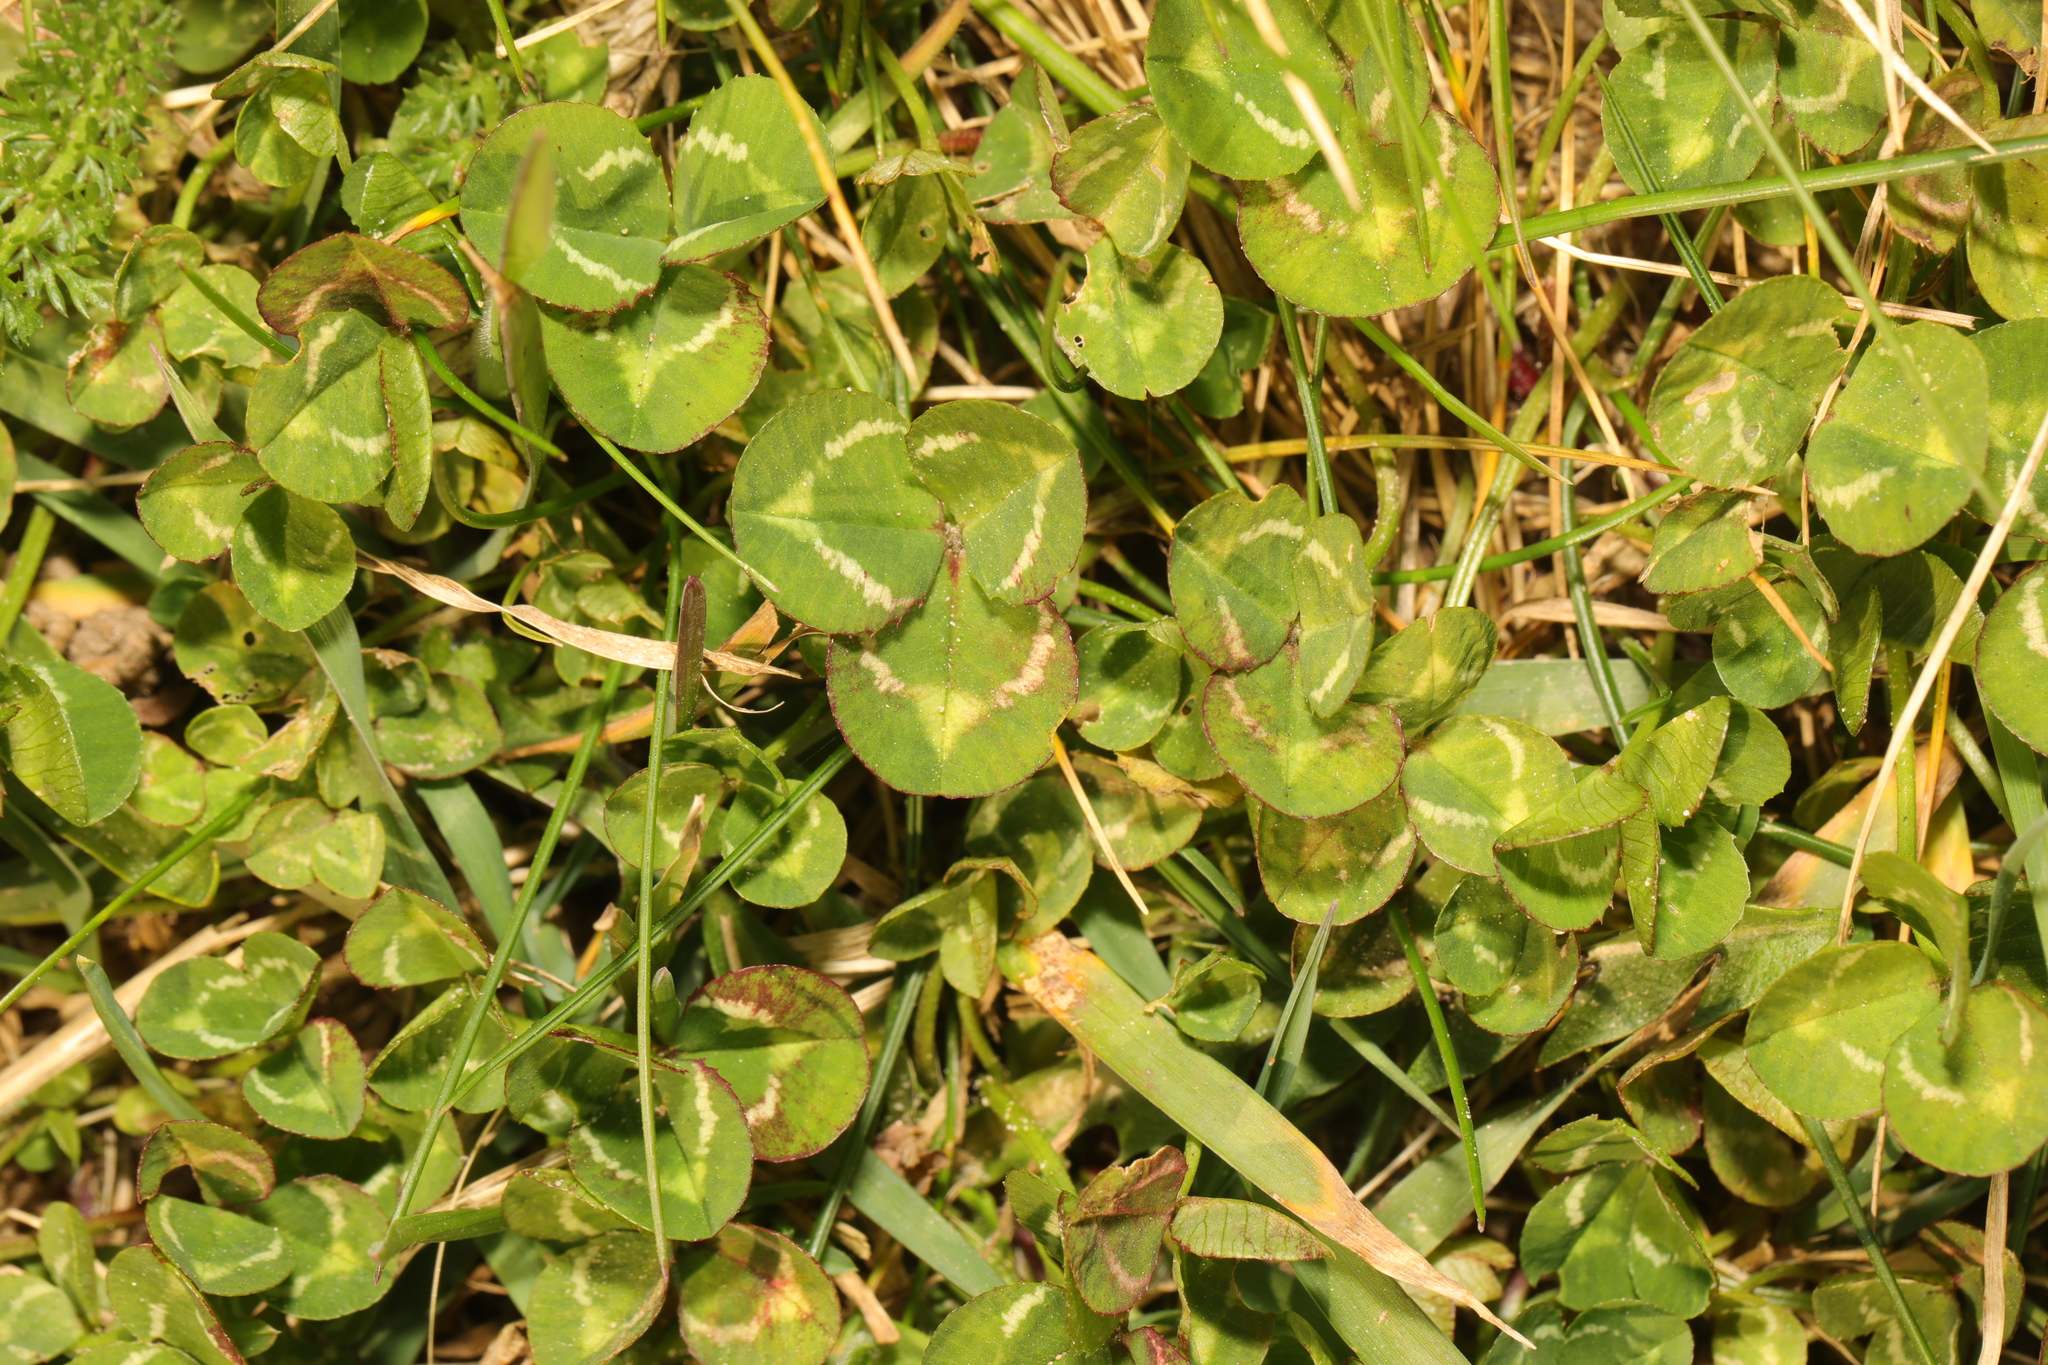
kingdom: Plantae
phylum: Tracheophyta
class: Magnoliopsida
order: Fabales
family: Fabaceae
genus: Trifolium
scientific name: Trifolium repens
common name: White clover
